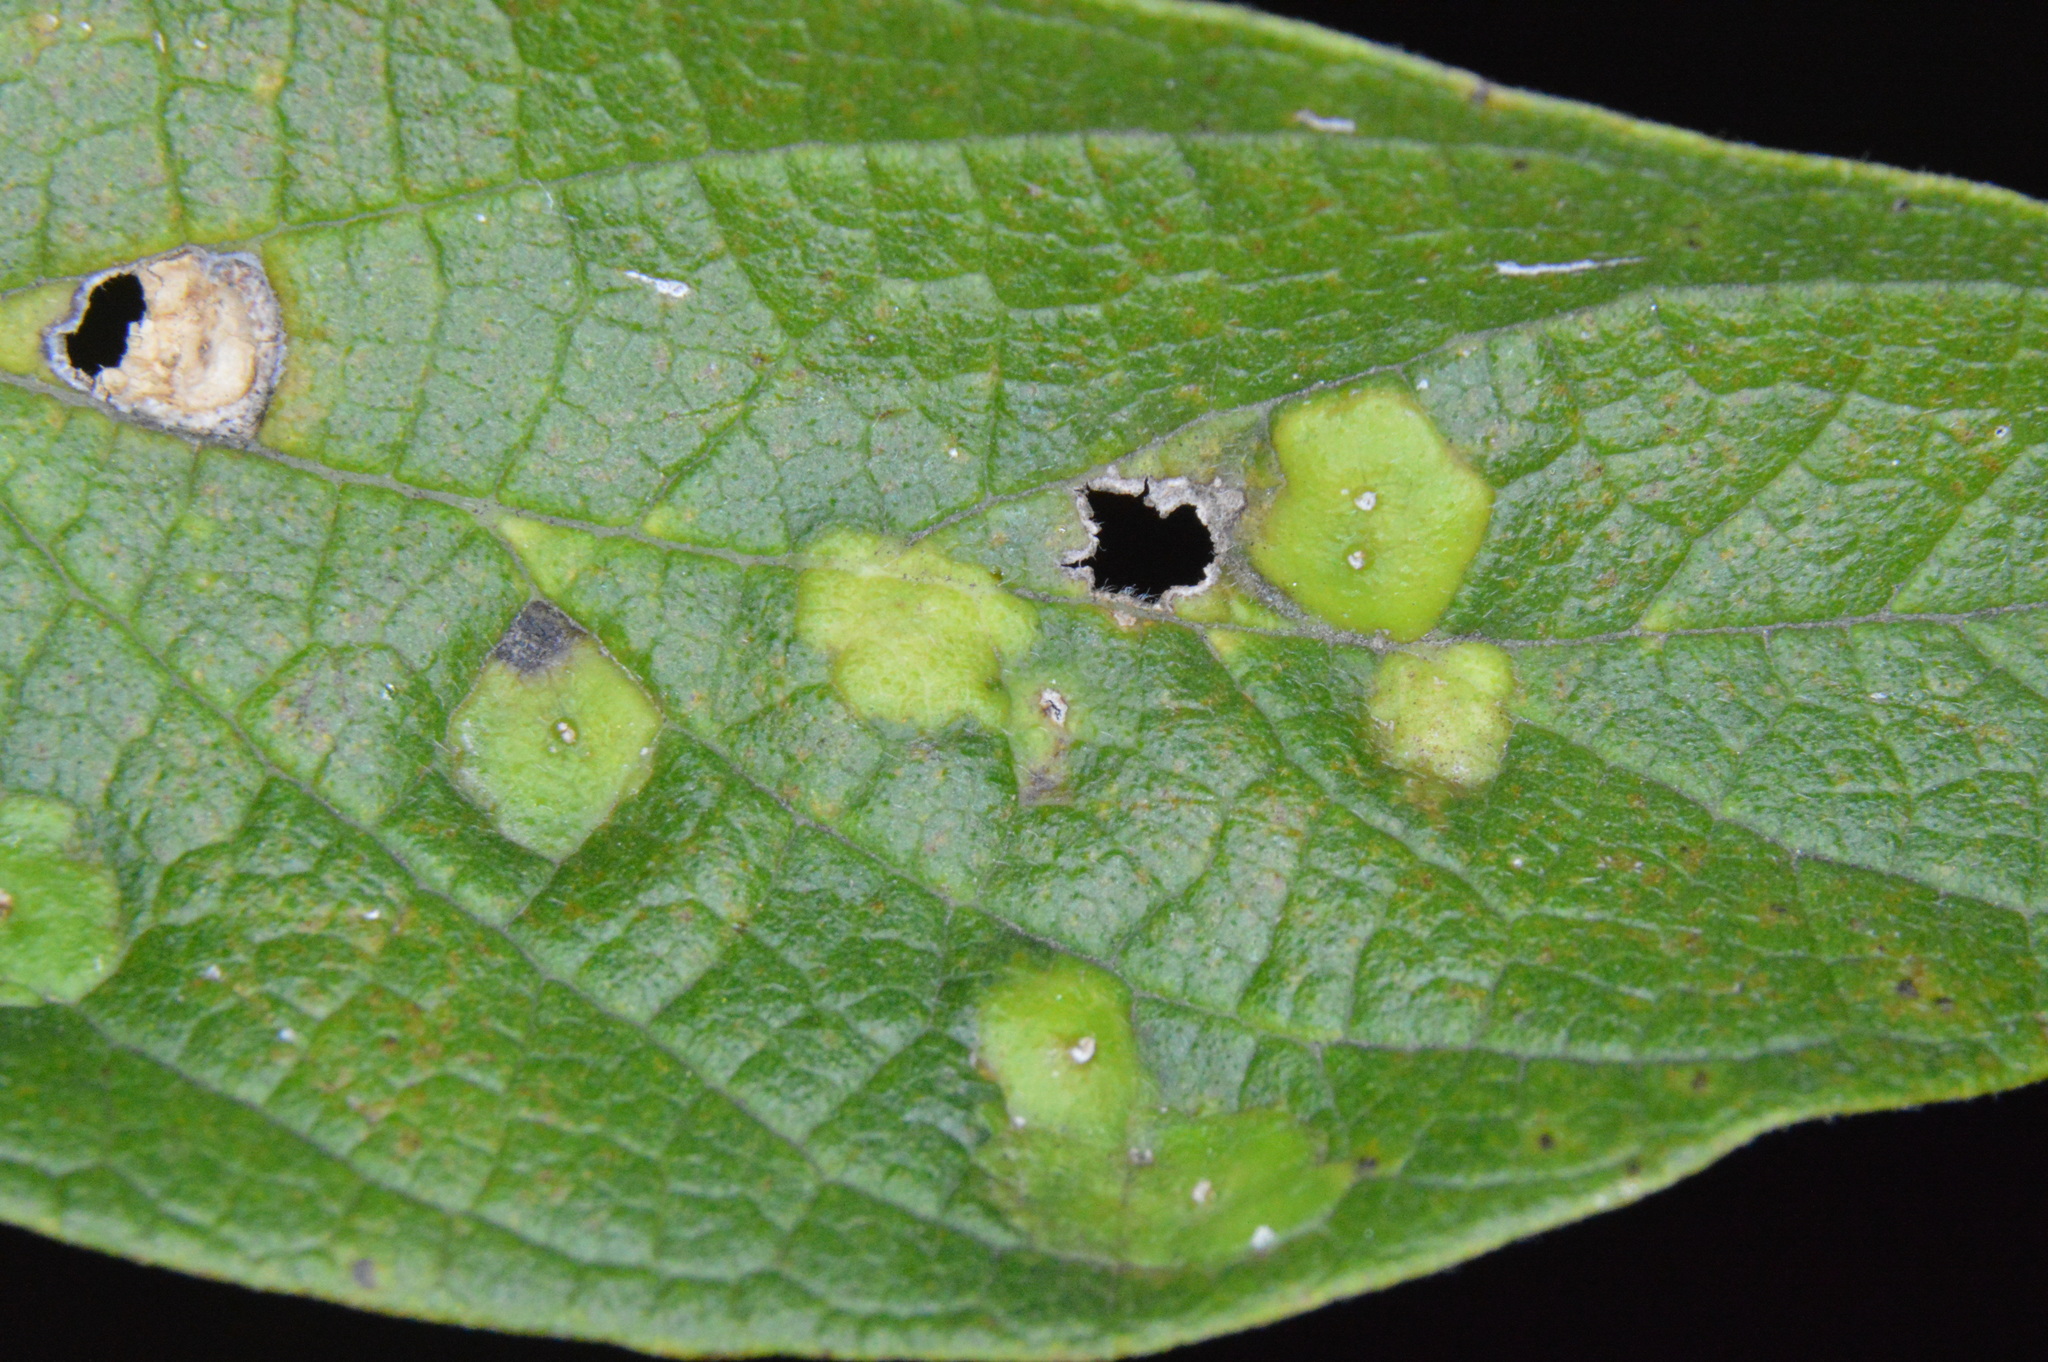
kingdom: Animalia
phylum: Arthropoda
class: Insecta
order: Hemiptera
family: Aphalaridae
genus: Pachypsylla
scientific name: Pachypsylla celtidisvesicula
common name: Hackberry blister gall psyllid
